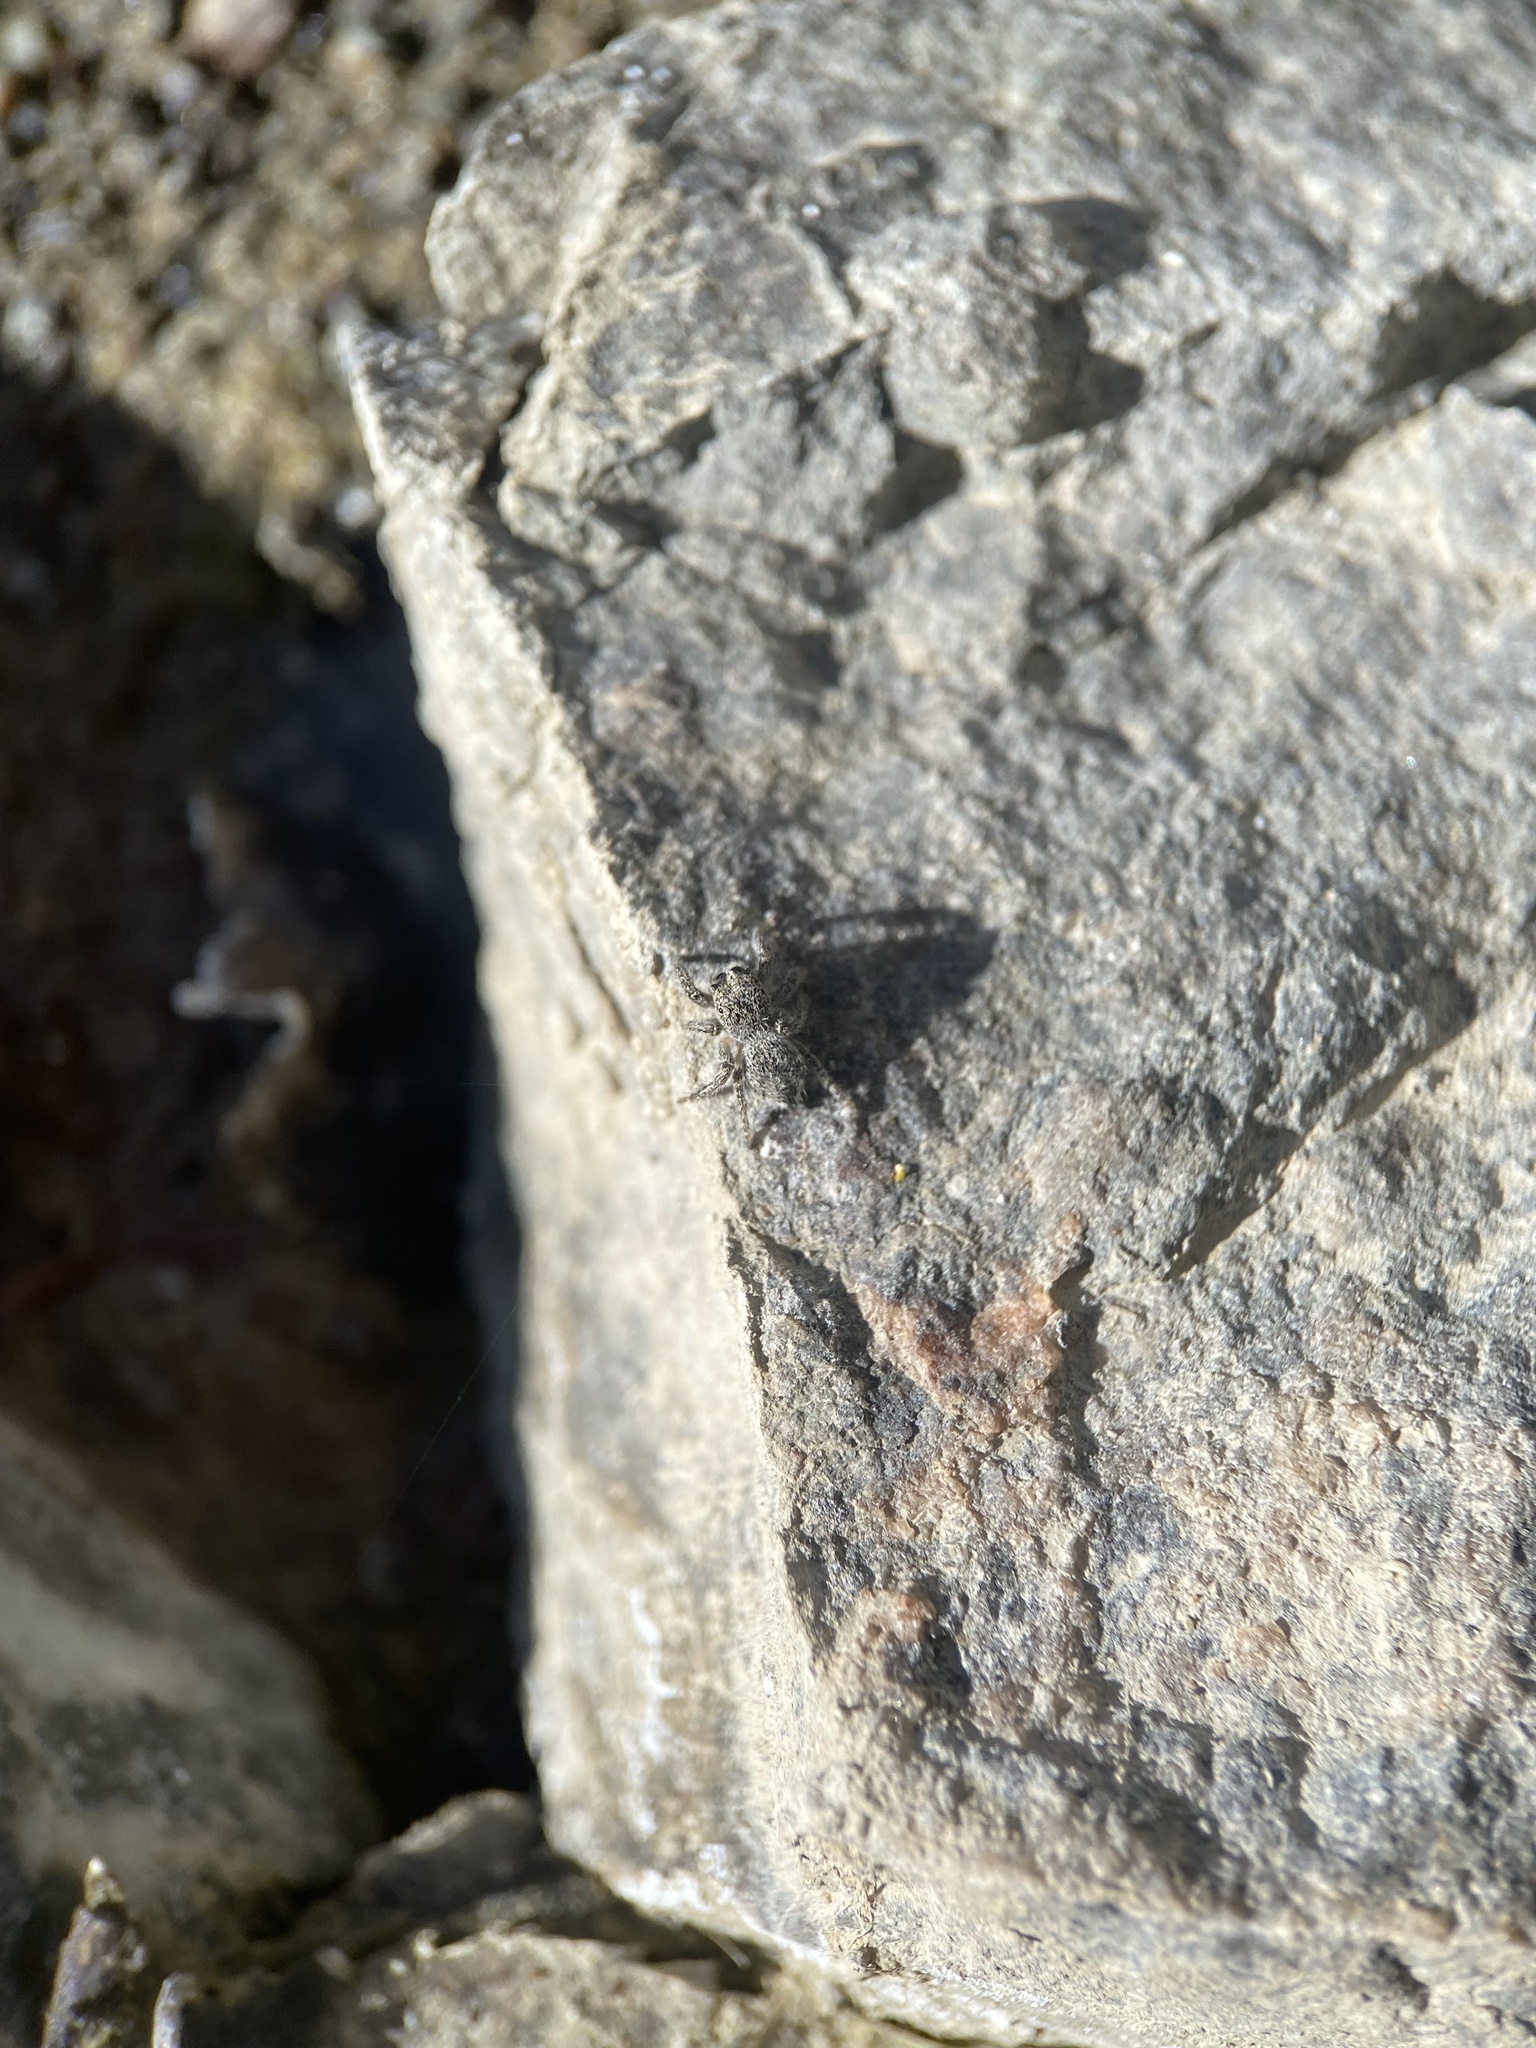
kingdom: Animalia
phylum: Arthropoda
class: Arachnida
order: Araneae
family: Salticidae
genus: Habronattus
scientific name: Habronattus hirsutus
